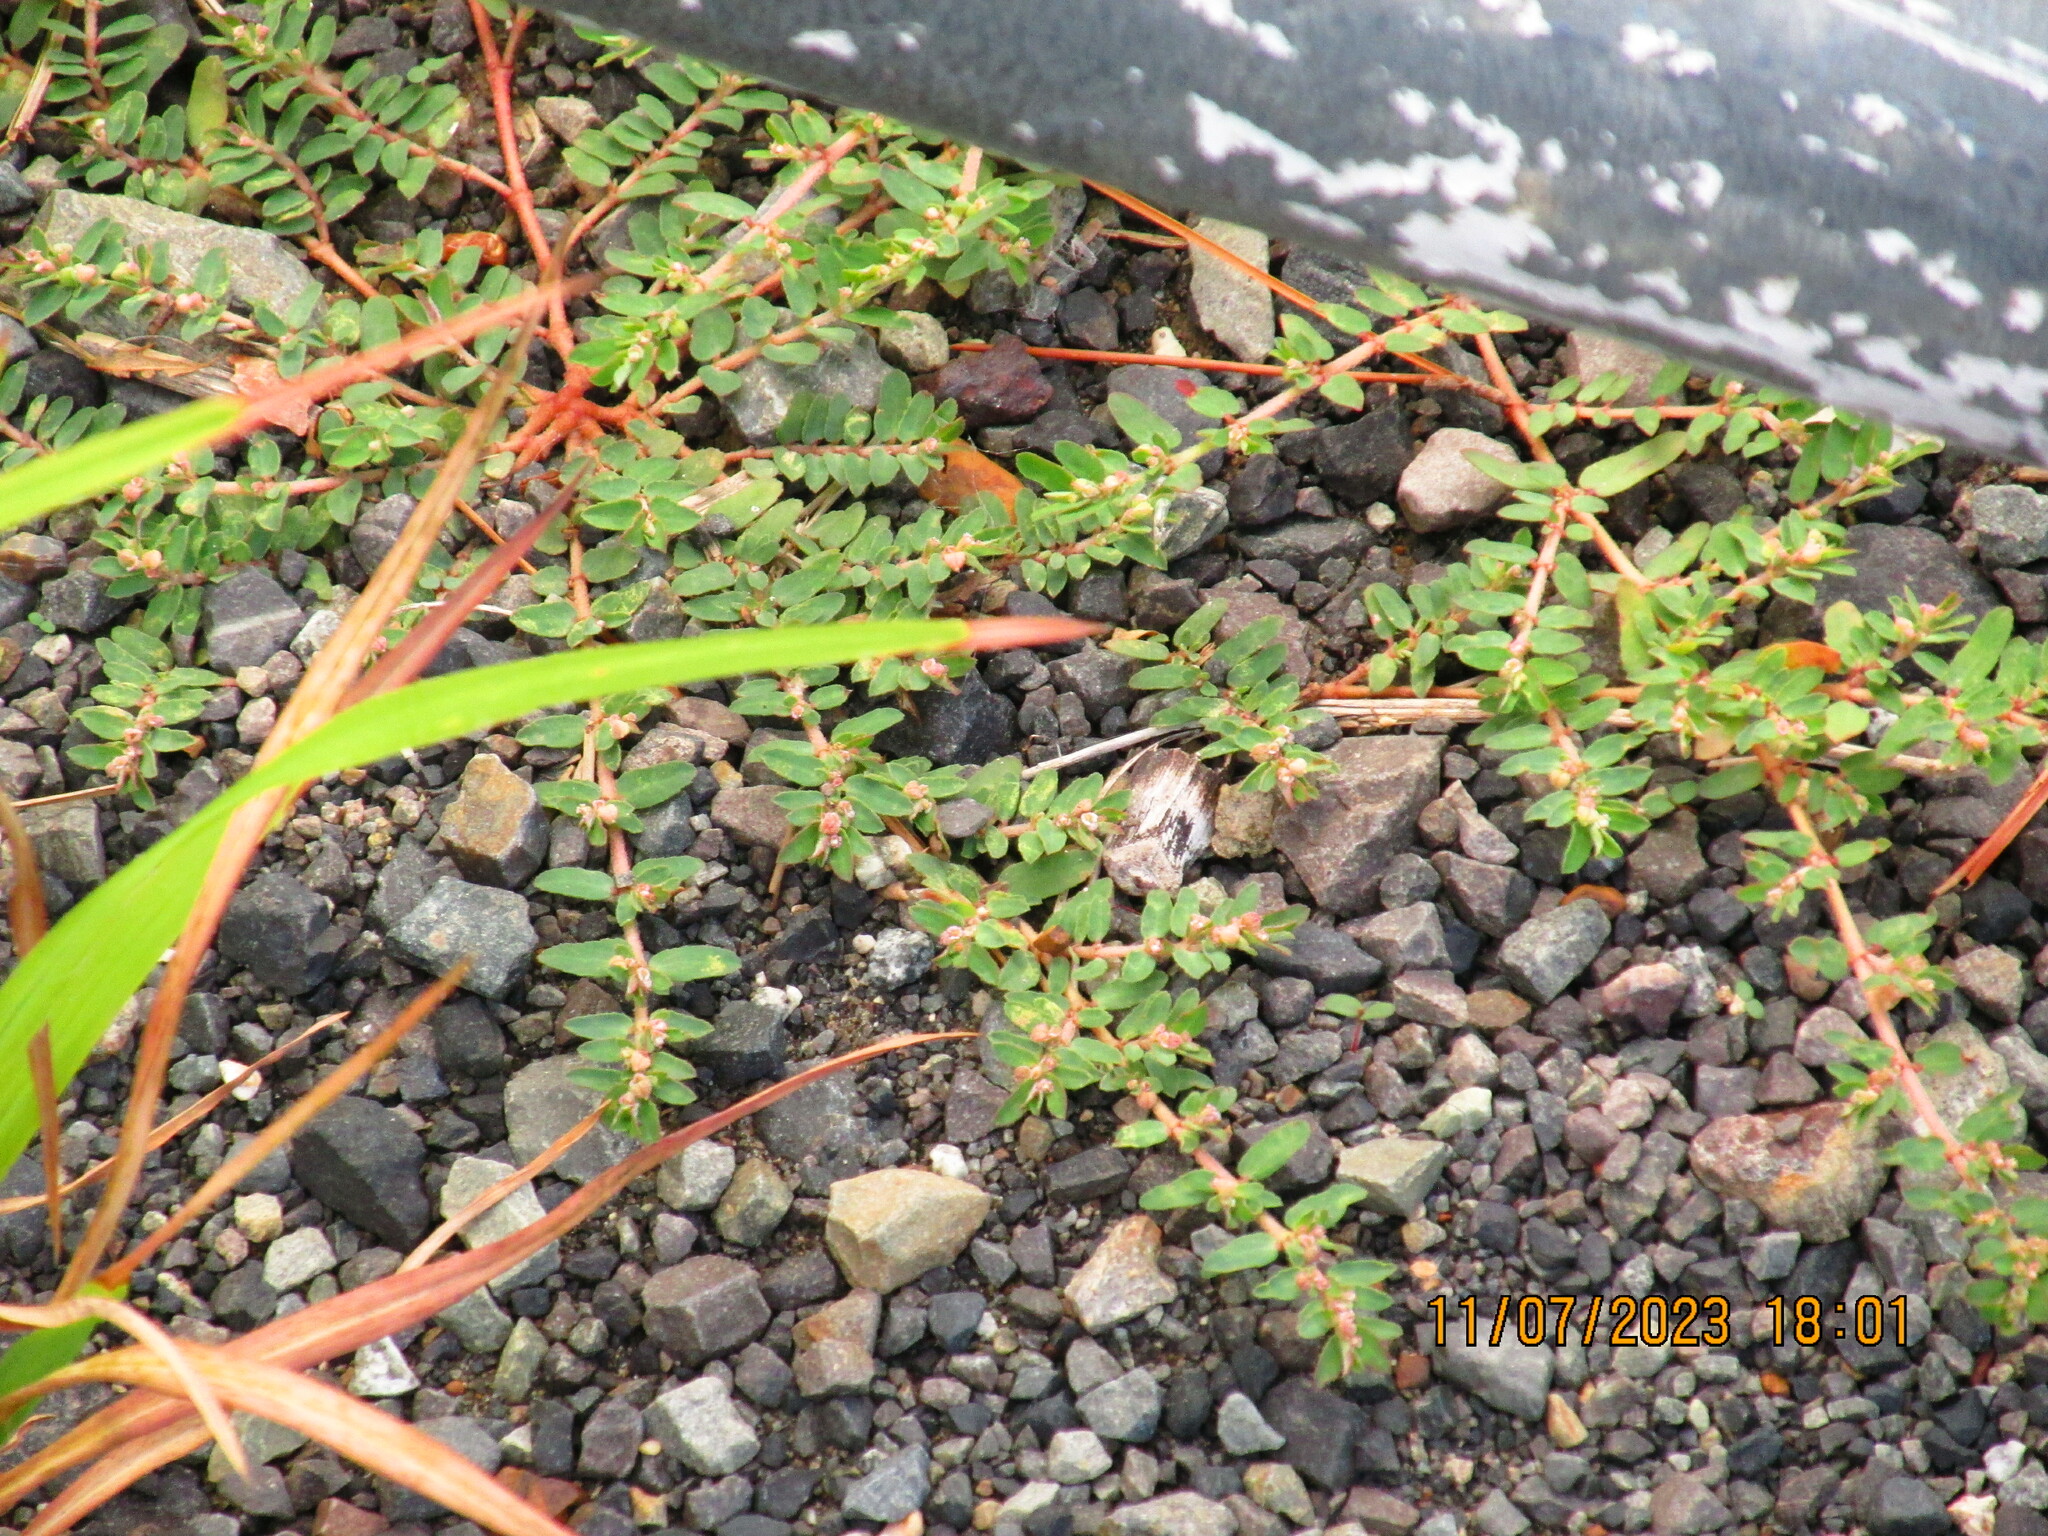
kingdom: Plantae
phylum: Tracheophyta
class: Magnoliopsida
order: Malpighiales
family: Euphorbiaceae
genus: Euphorbia
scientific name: Euphorbia prostrata
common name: Prostrate sandmat
